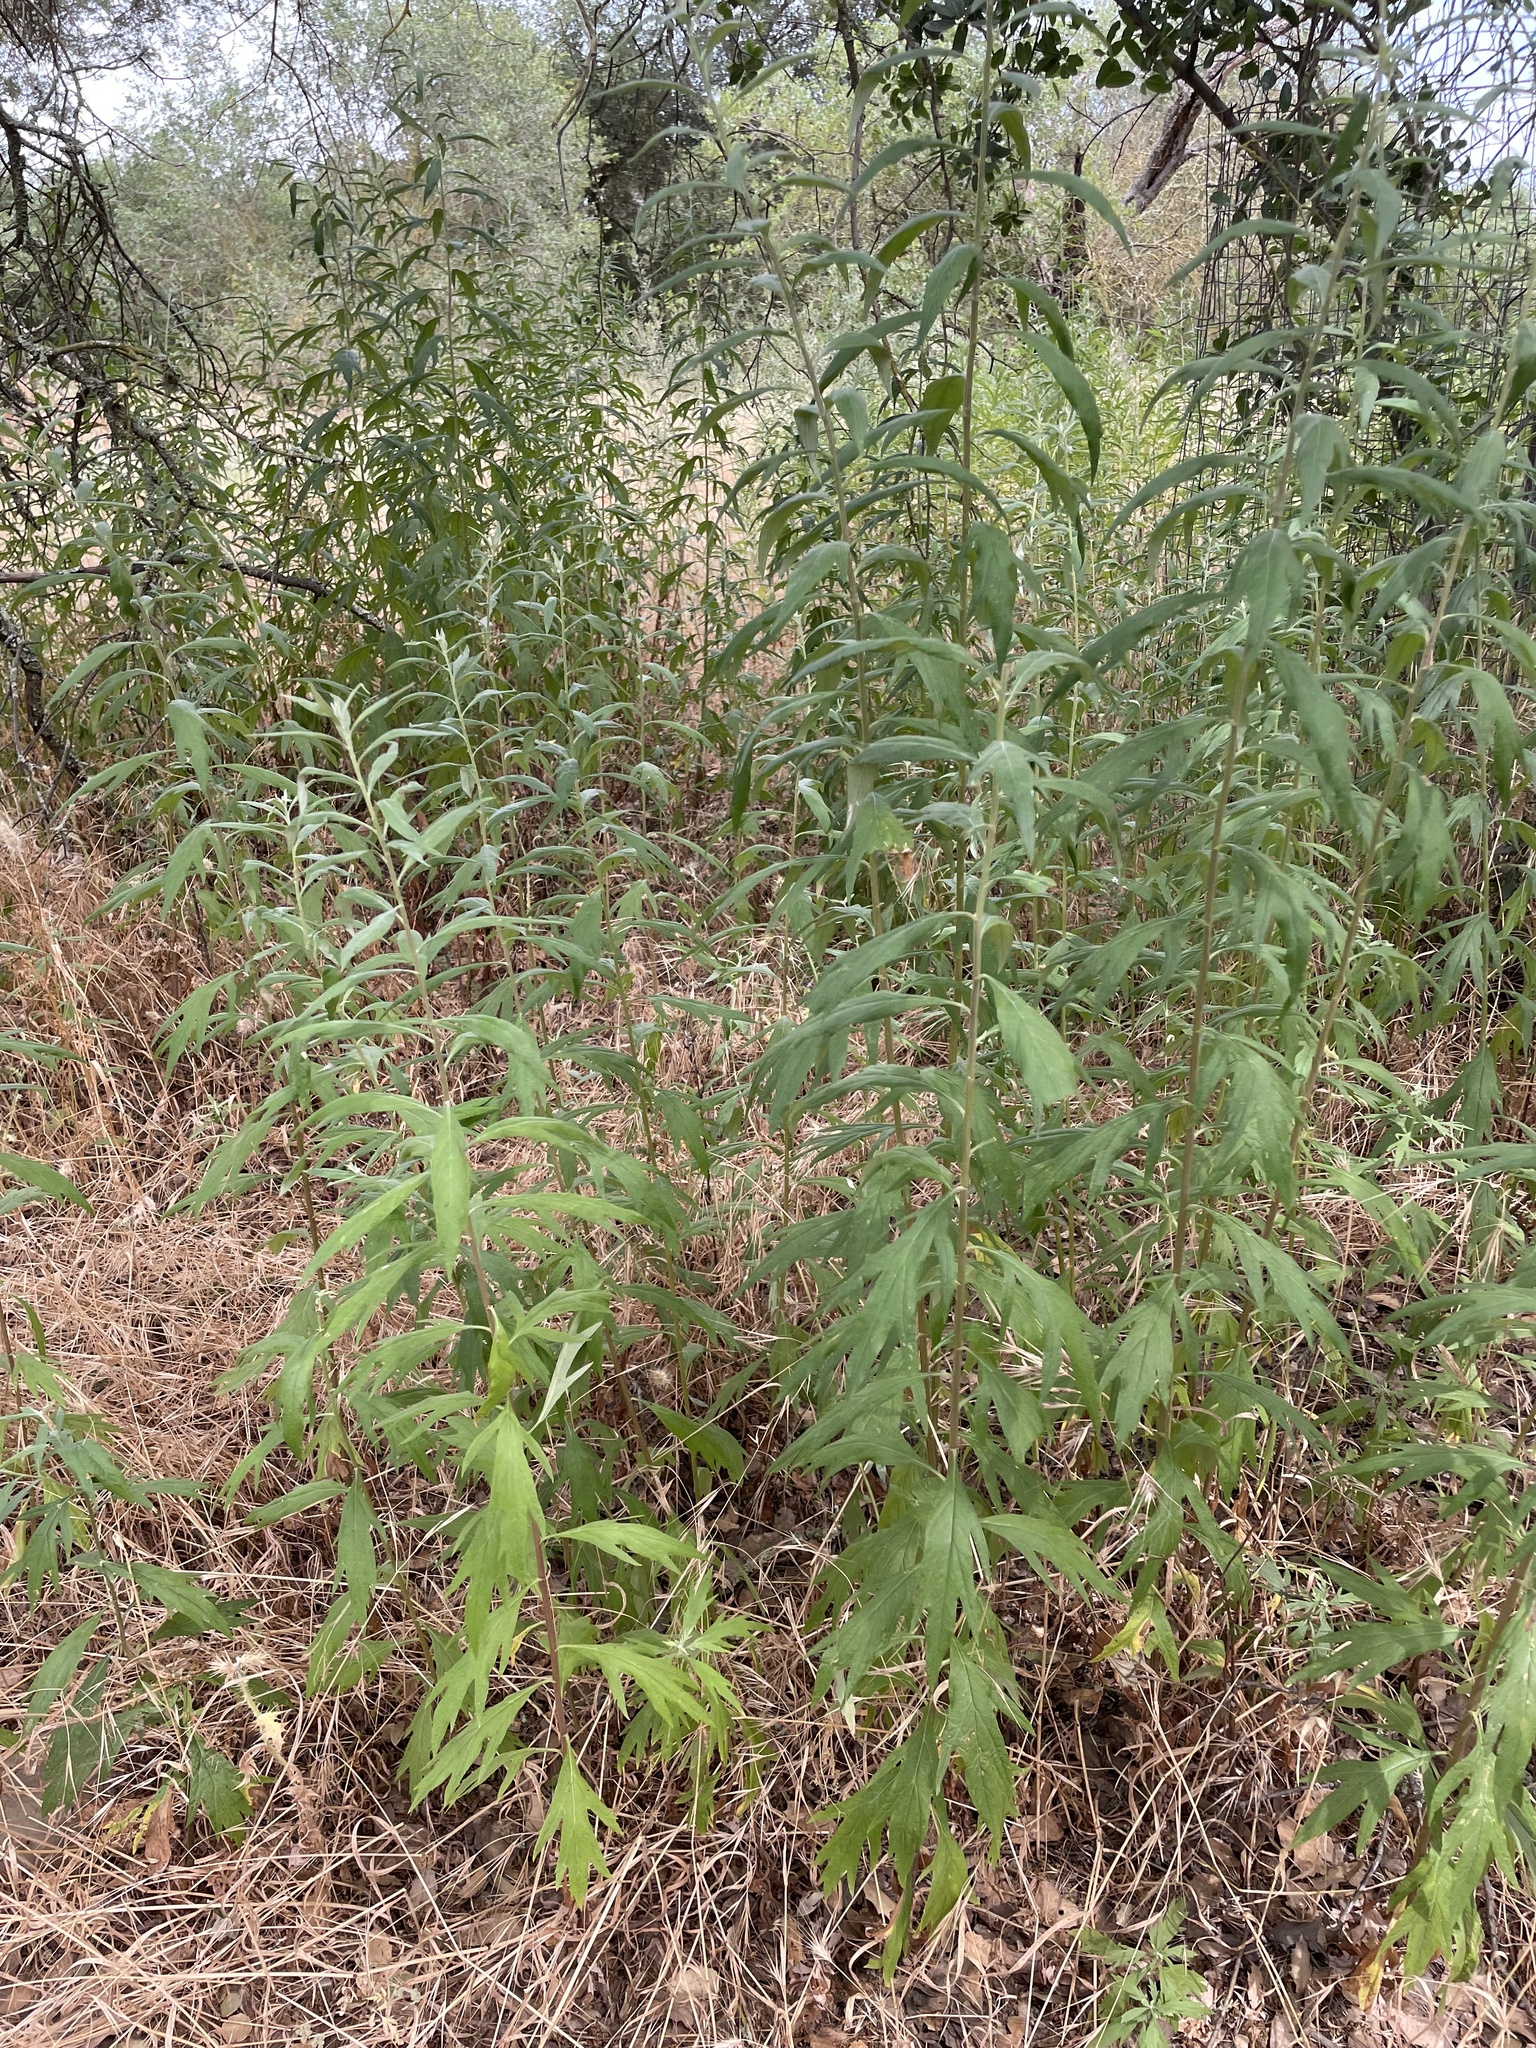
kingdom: Plantae
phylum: Tracheophyta
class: Magnoliopsida
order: Asterales
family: Asteraceae
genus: Artemisia
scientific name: Artemisia douglasiana
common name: Northwest mugwort
